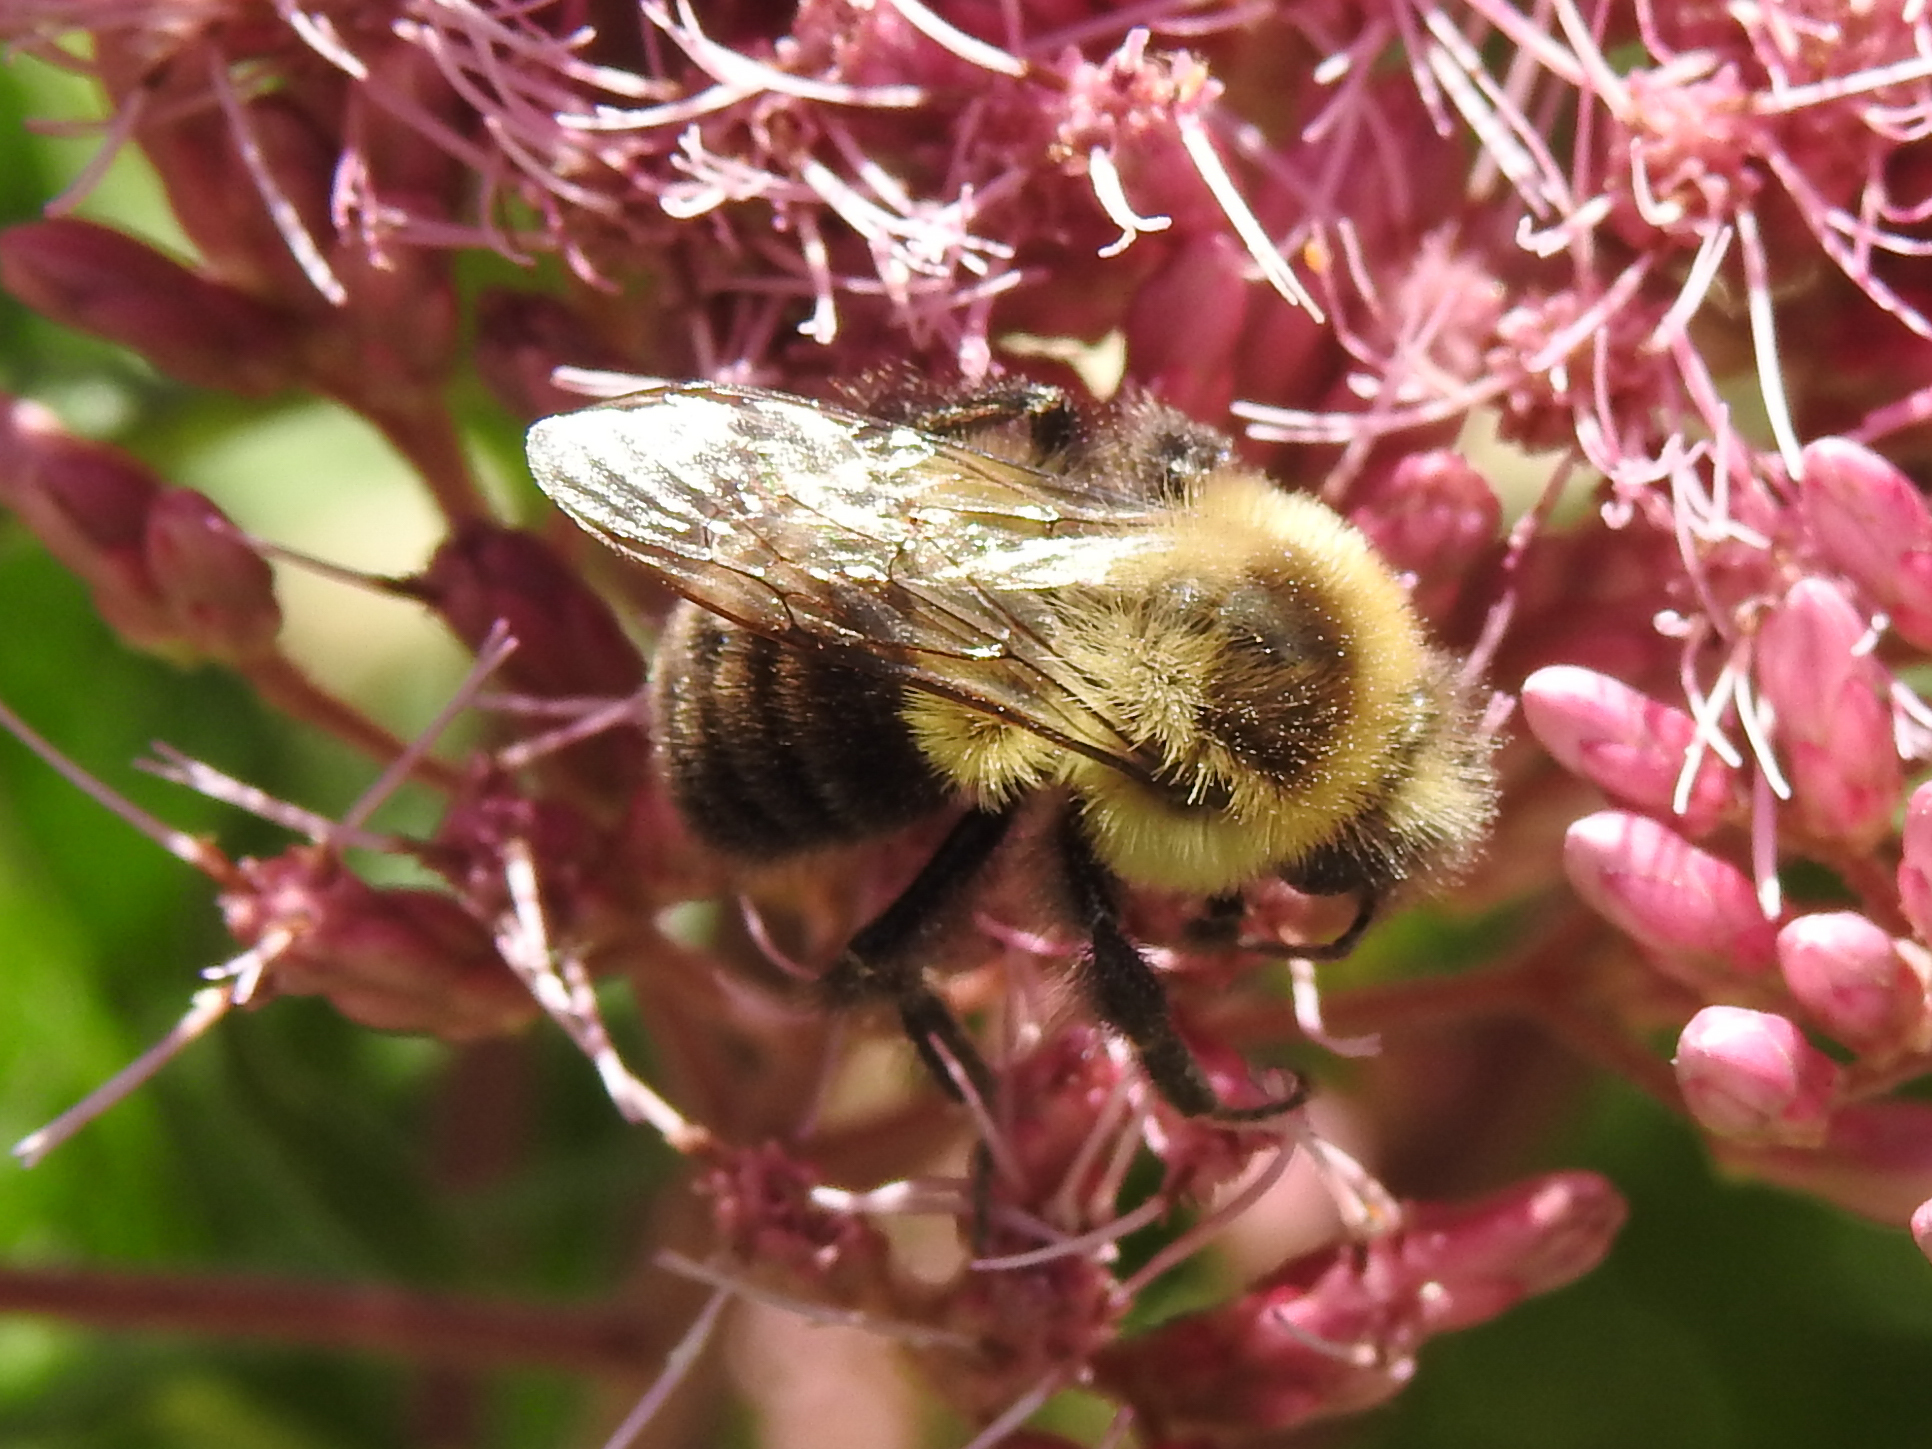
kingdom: Animalia
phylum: Arthropoda
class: Insecta
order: Hymenoptera
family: Apidae
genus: Bombus
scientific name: Bombus impatiens
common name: Common eastern bumble bee
